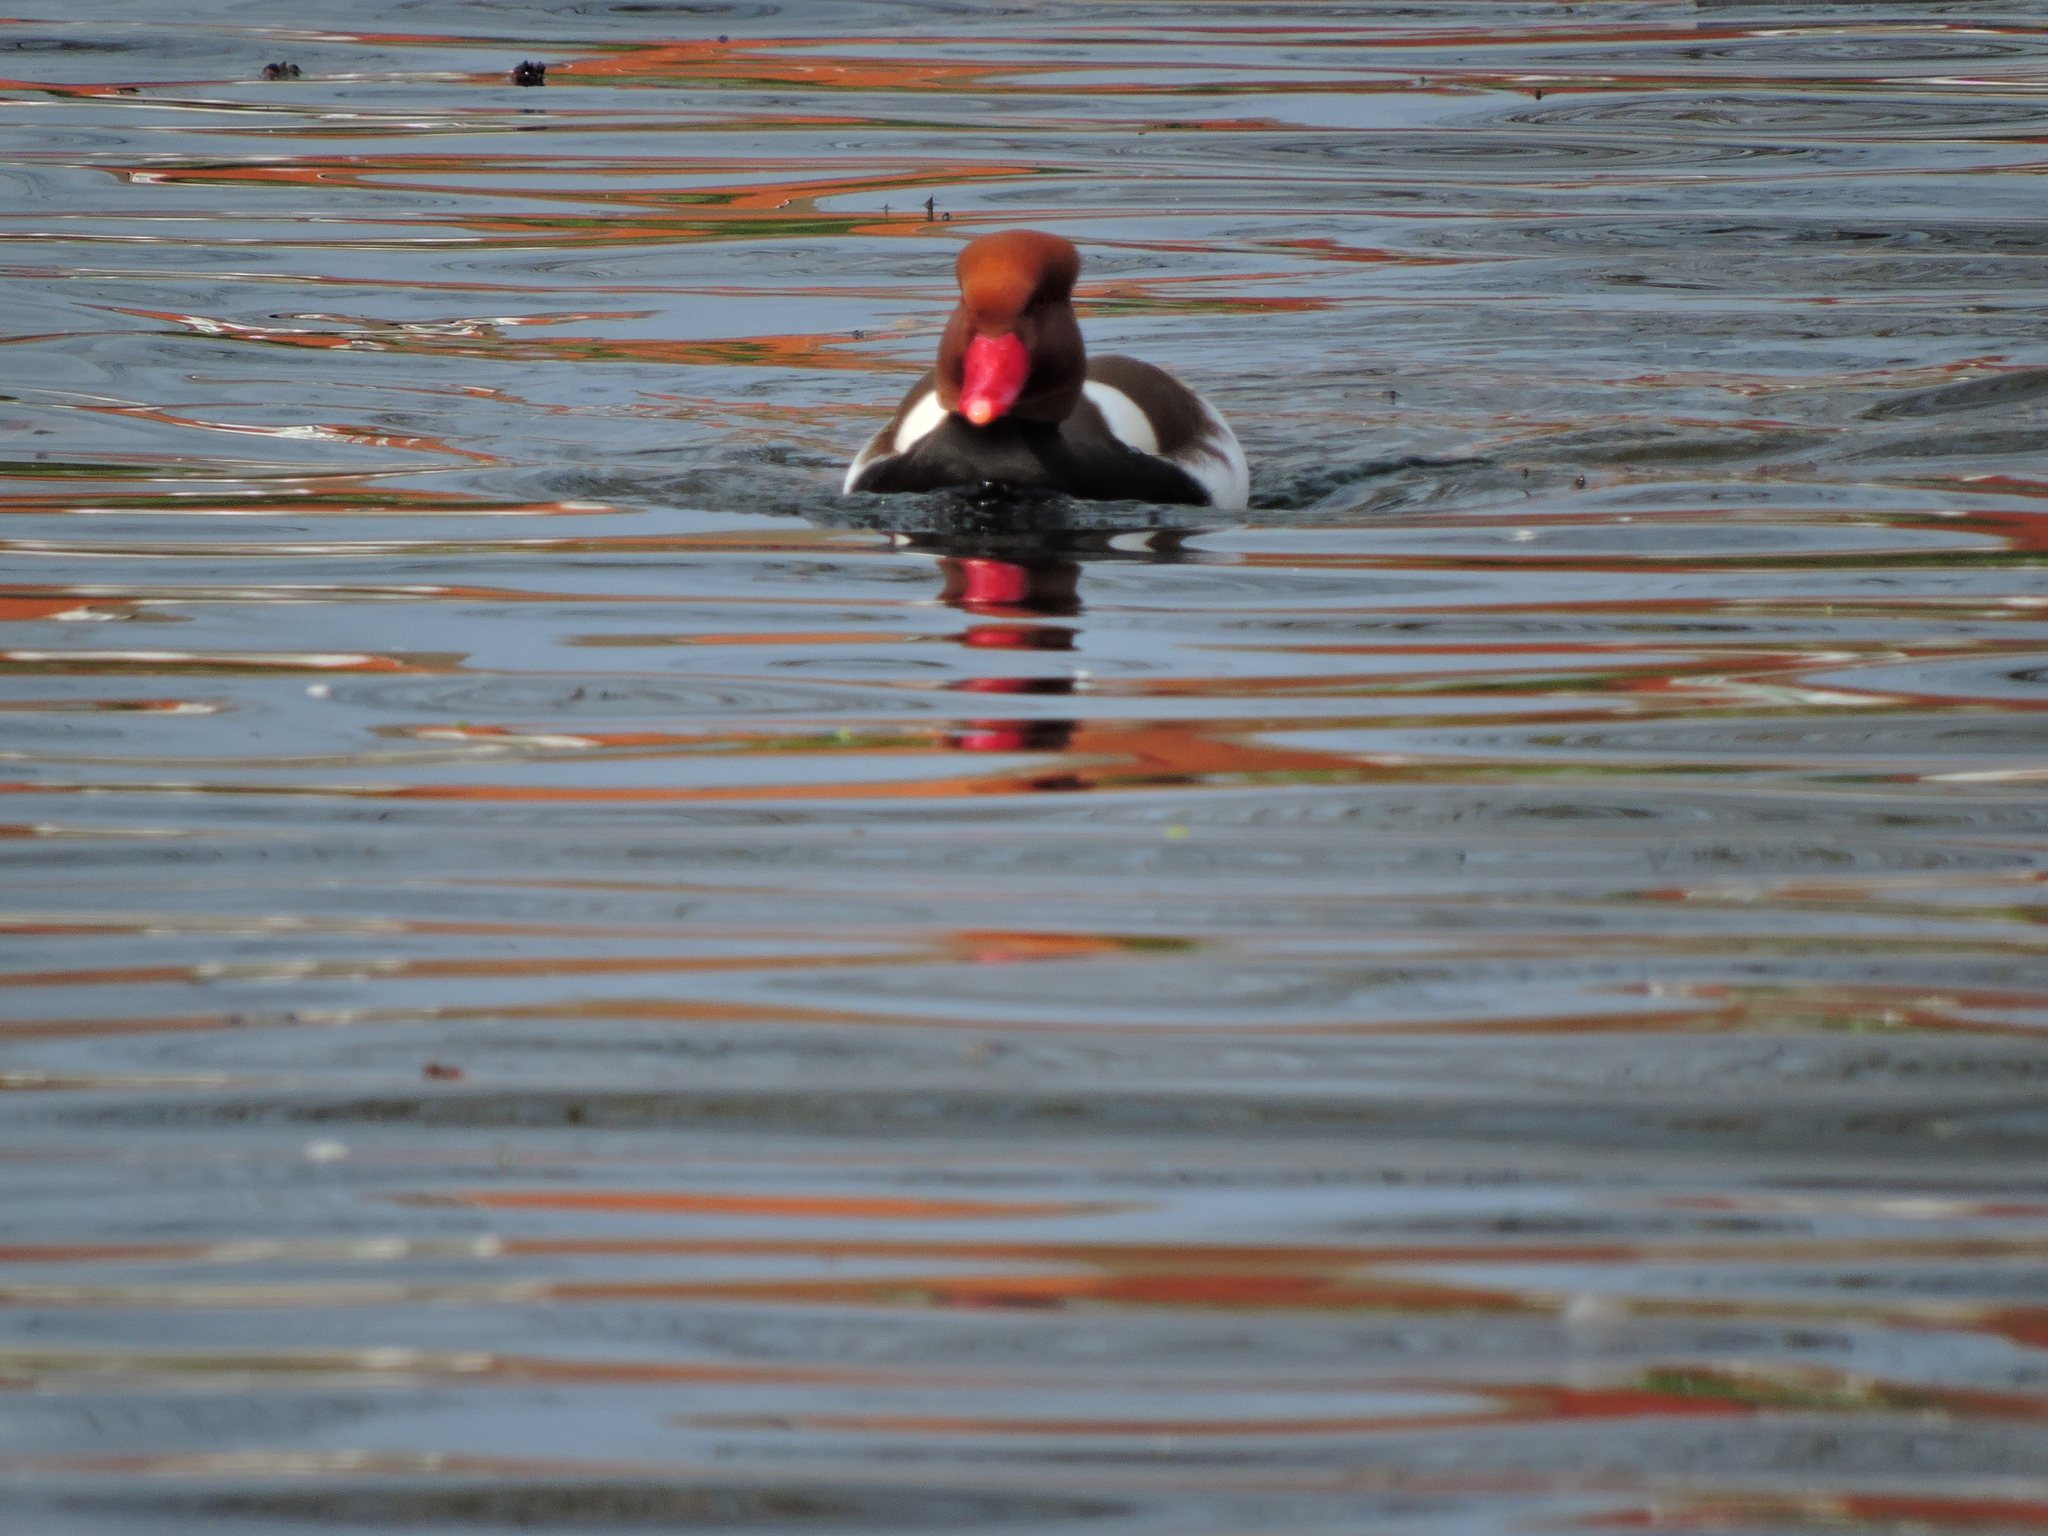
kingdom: Animalia
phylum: Chordata
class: Aves
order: Anseriformes
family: Anatidae
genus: Netta
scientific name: Netta rufina
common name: Red-crested pochard
